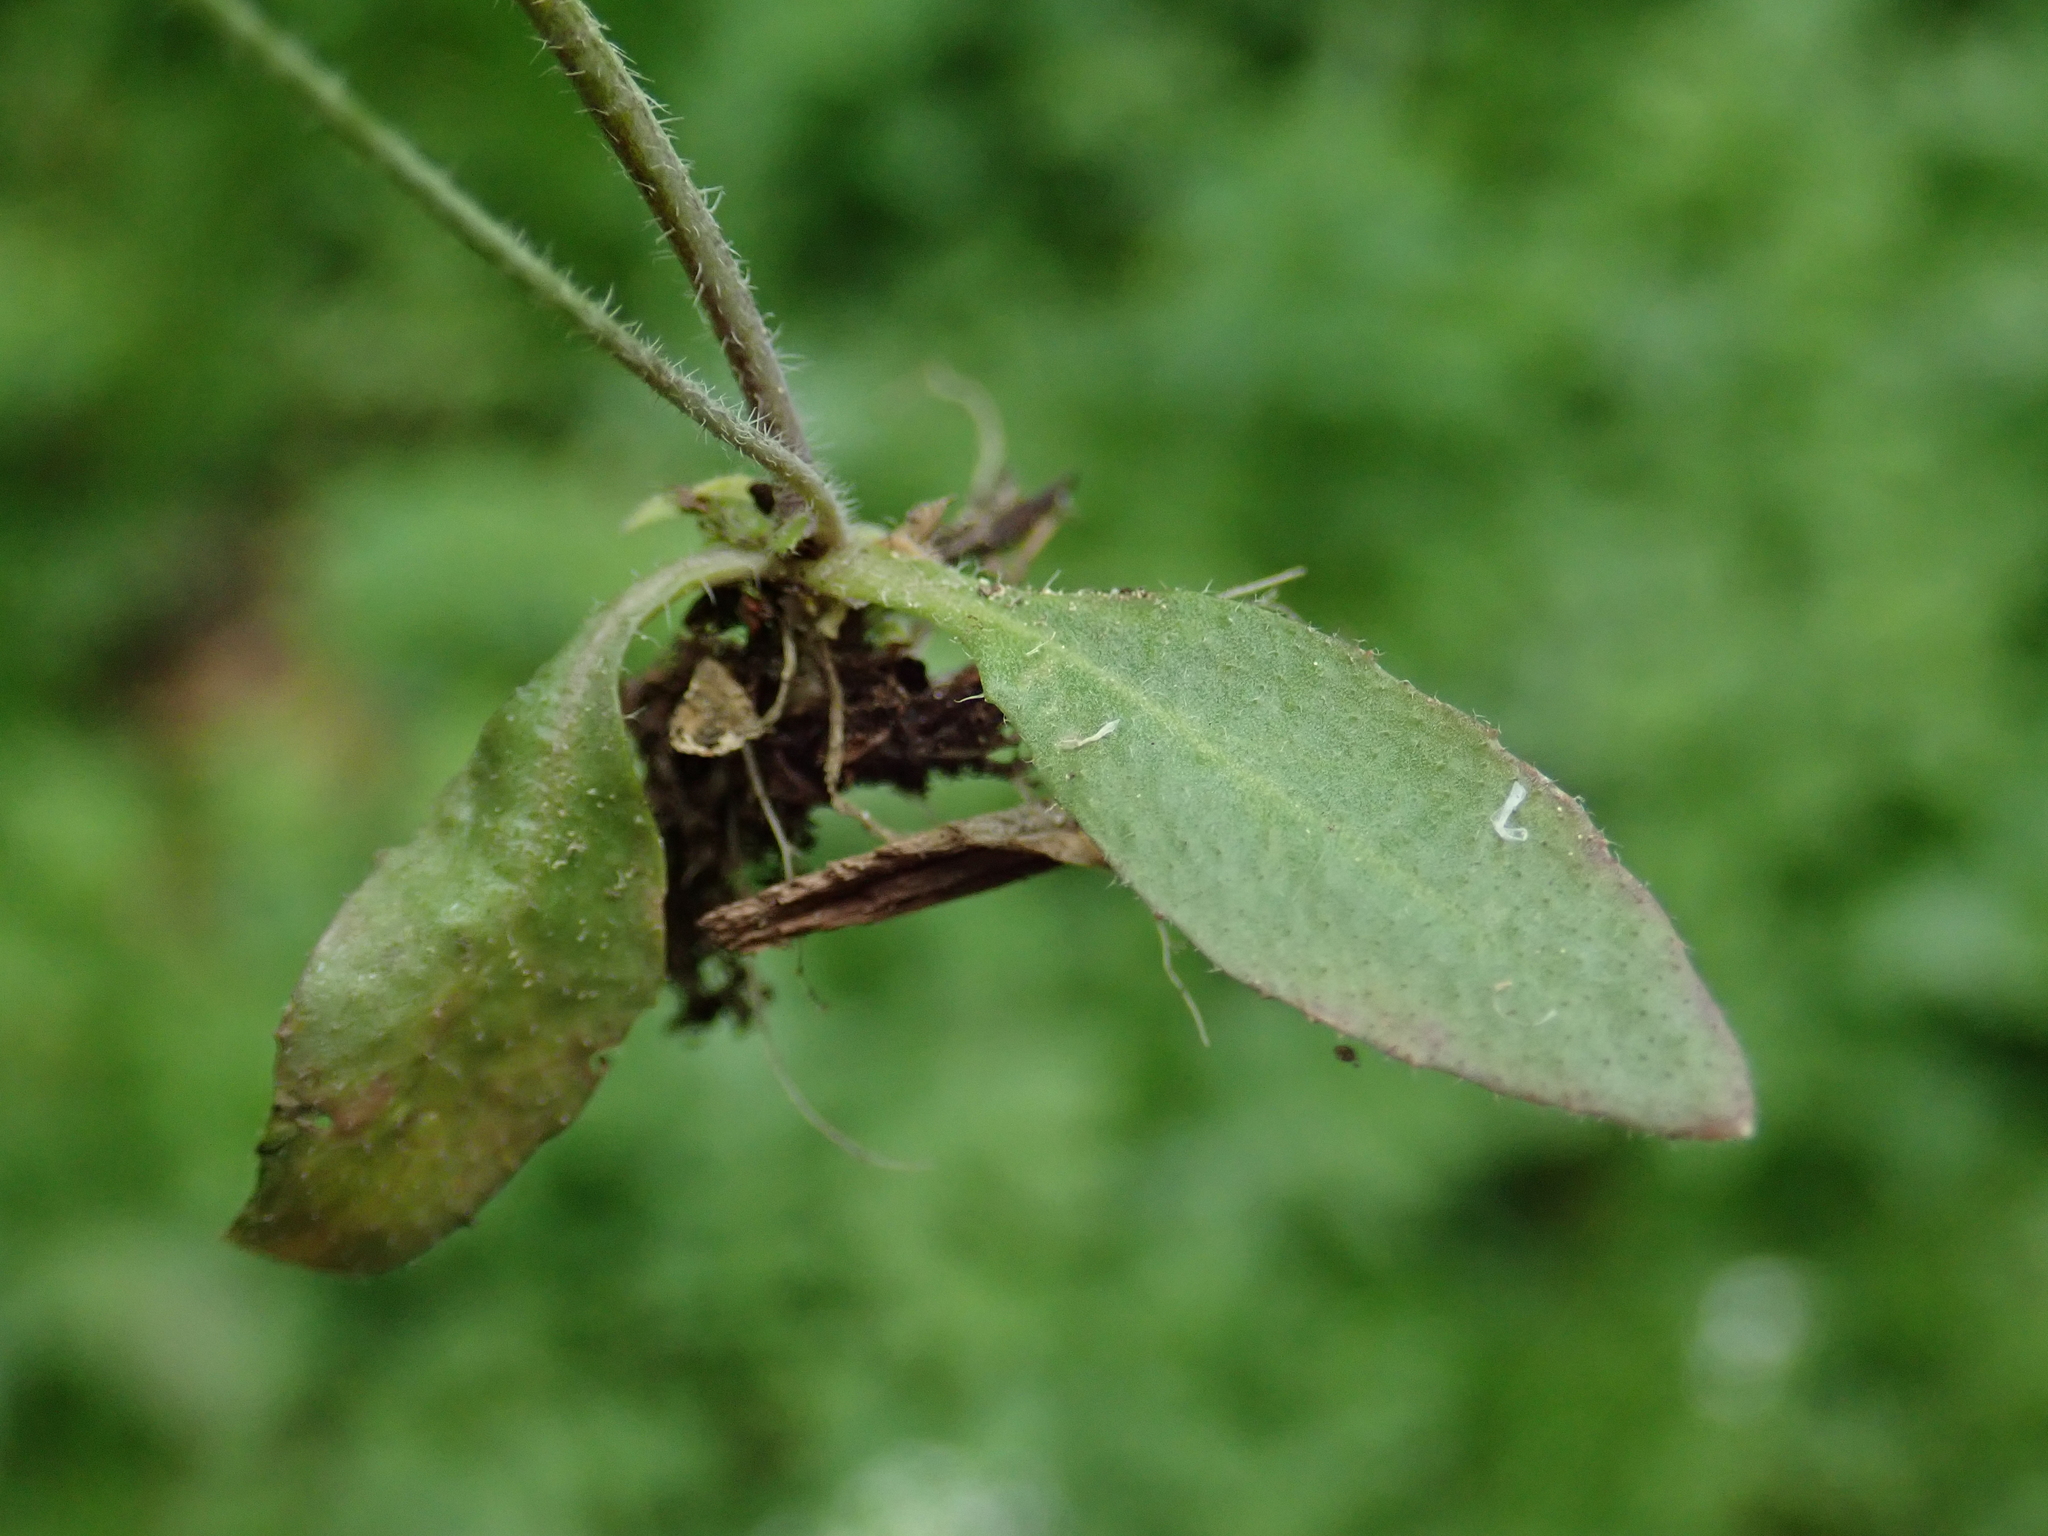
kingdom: Plantae
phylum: Tracheophyta
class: Magnoliopsida
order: Brassicales
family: Brassicaceae
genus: Arabidopsis
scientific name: Arabidopsis thaliana
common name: Thale cress
